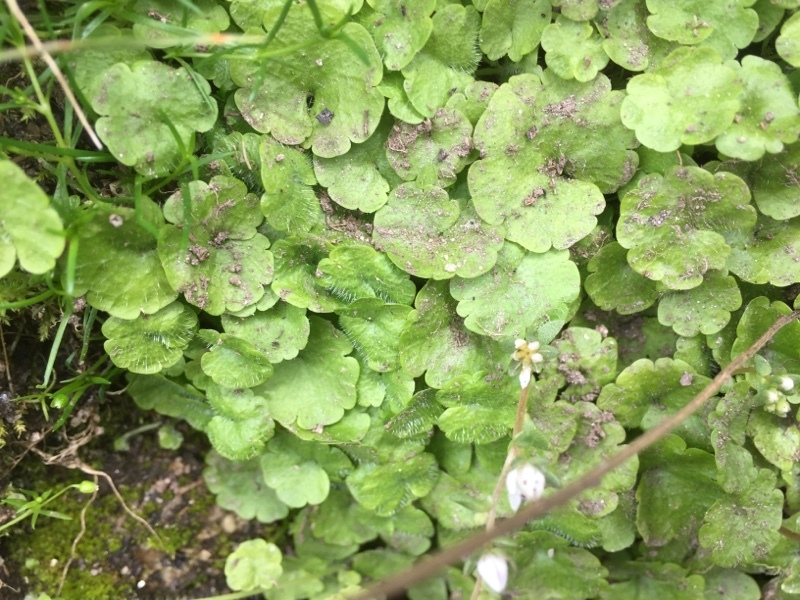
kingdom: Plantae
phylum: Tracheophyta
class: Magnoliopsida
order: Lamiales
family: Plantaginaceae
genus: Sibthorpia
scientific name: Sibthorpia europaea
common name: Cornish moneywort
